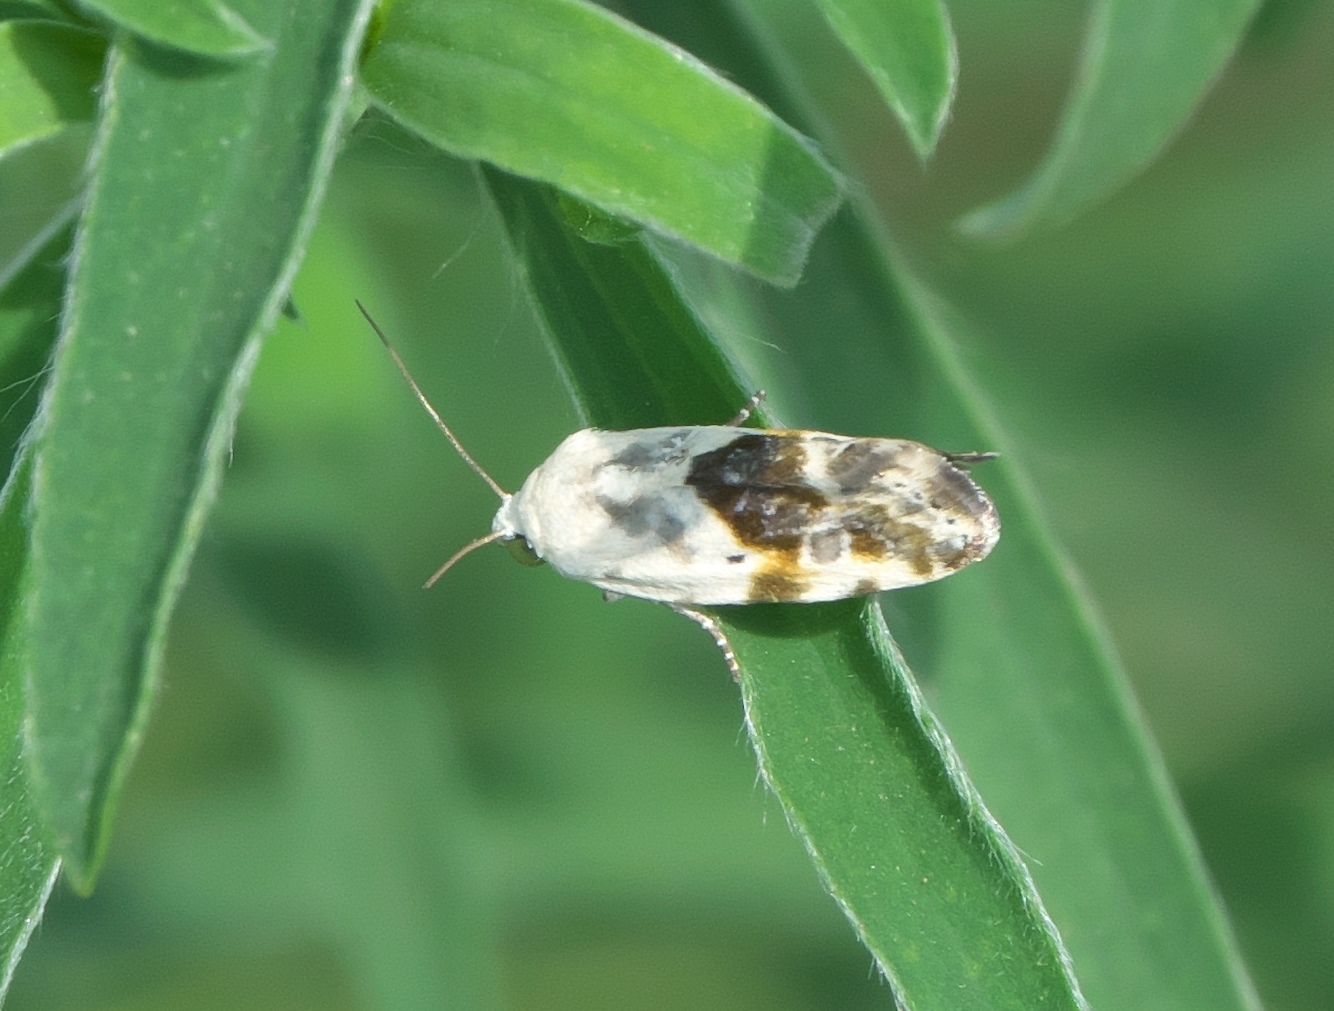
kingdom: Animalia
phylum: Arthropoda
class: Insecta
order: Lepidoptera
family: Noctuidae
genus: Acontia
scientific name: Acontia candefacta
